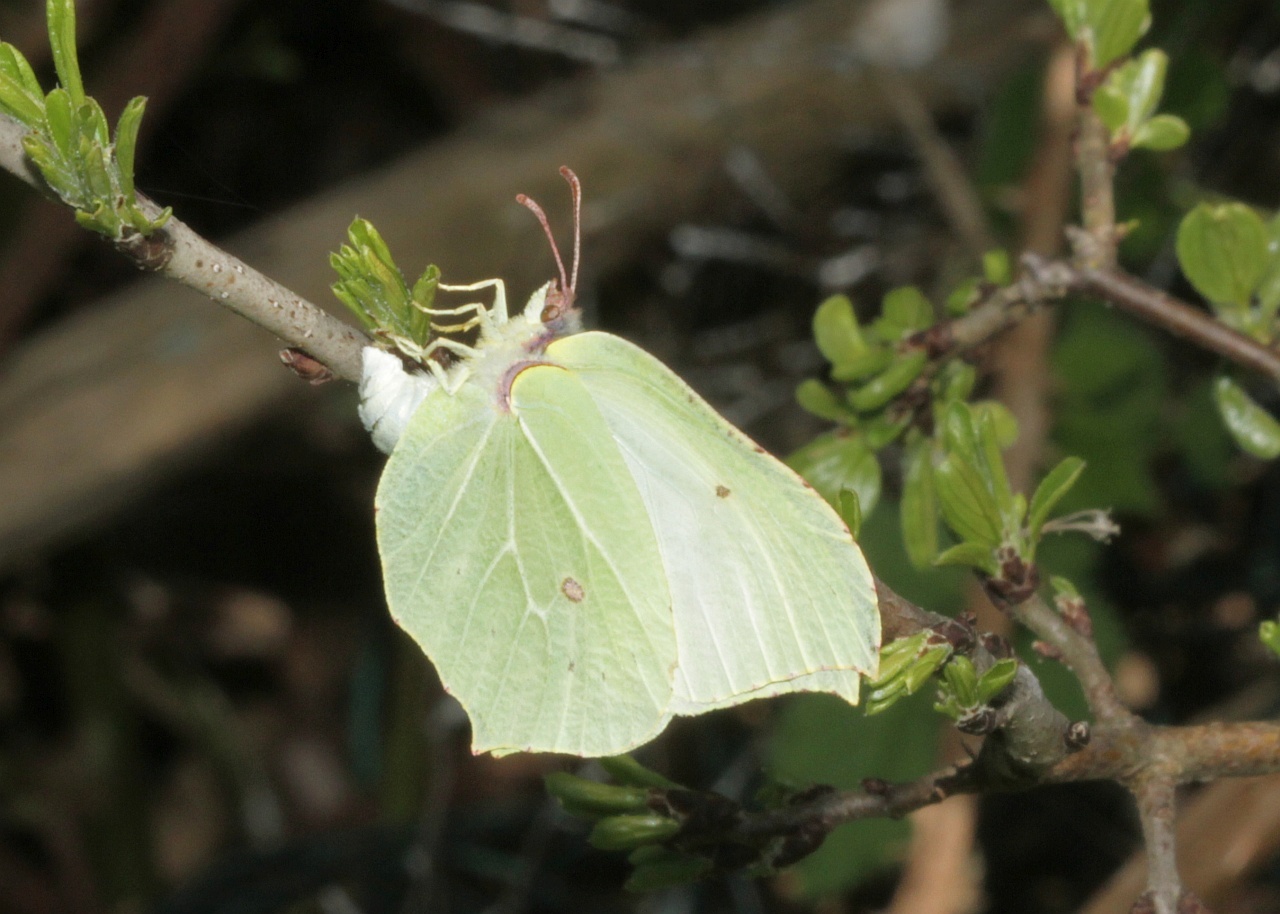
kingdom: Animalia
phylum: Arthropoda
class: Insecta
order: Lepidoptera
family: Pieridae
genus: Gonepteryx
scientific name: Gonepteryx rhamni
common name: Brimstone
